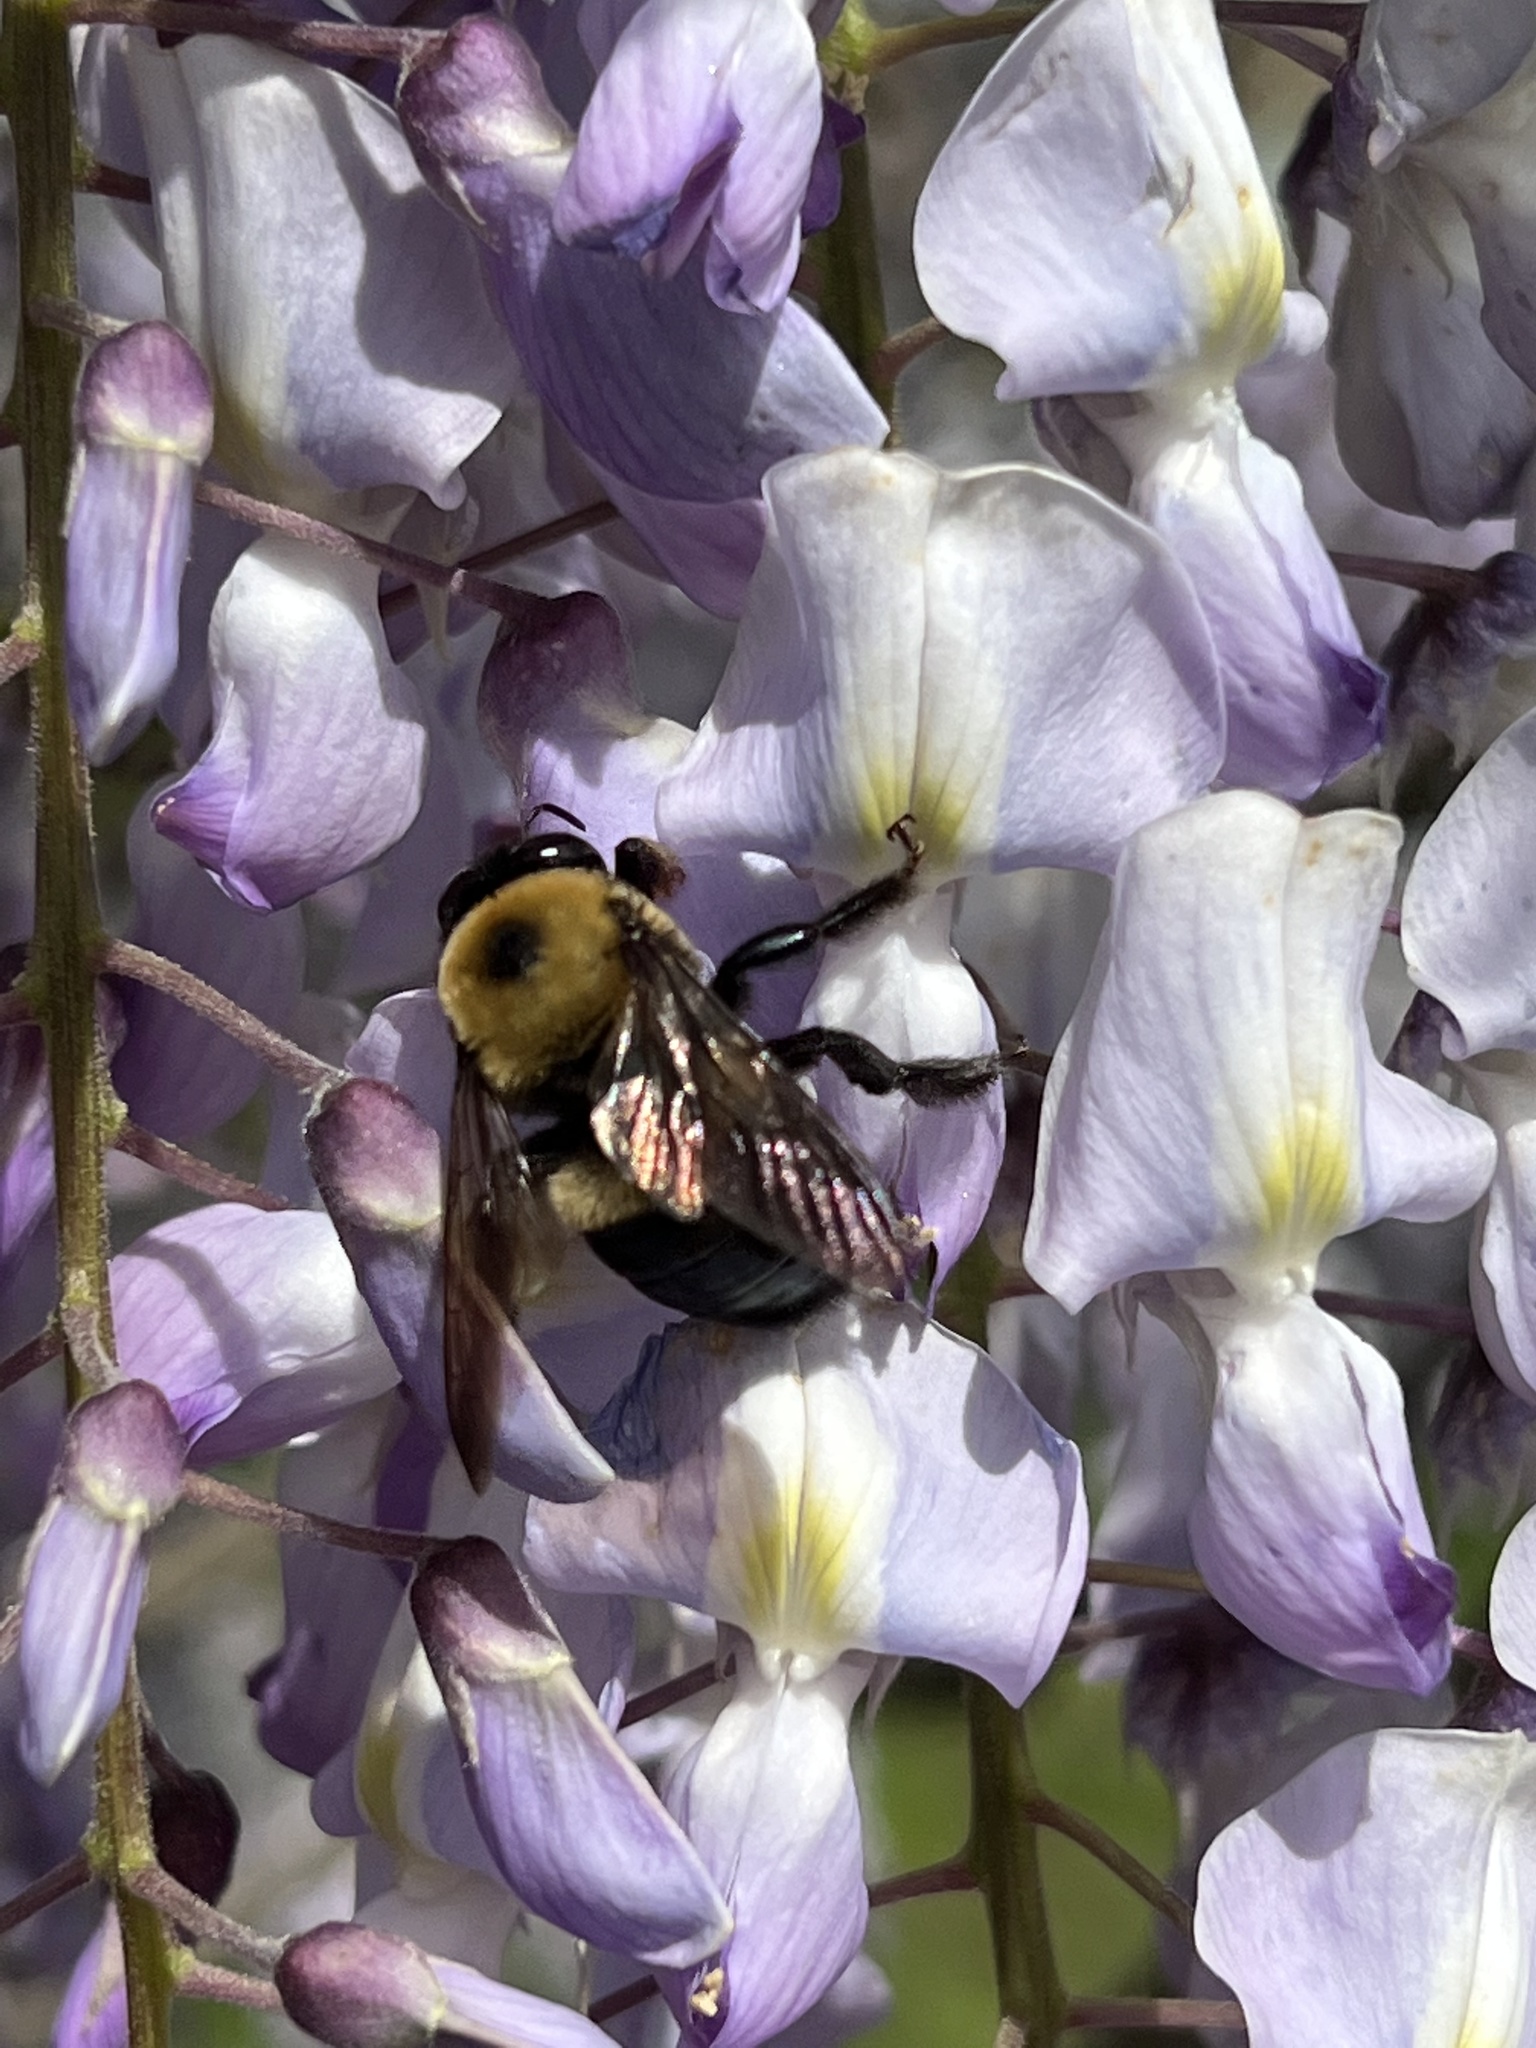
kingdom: Animalia
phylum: Arthropoda
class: Insecta
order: Hymenoptera
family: Apidae
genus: Xylocopa
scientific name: Xylocopa virginica
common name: Carpenter bee
